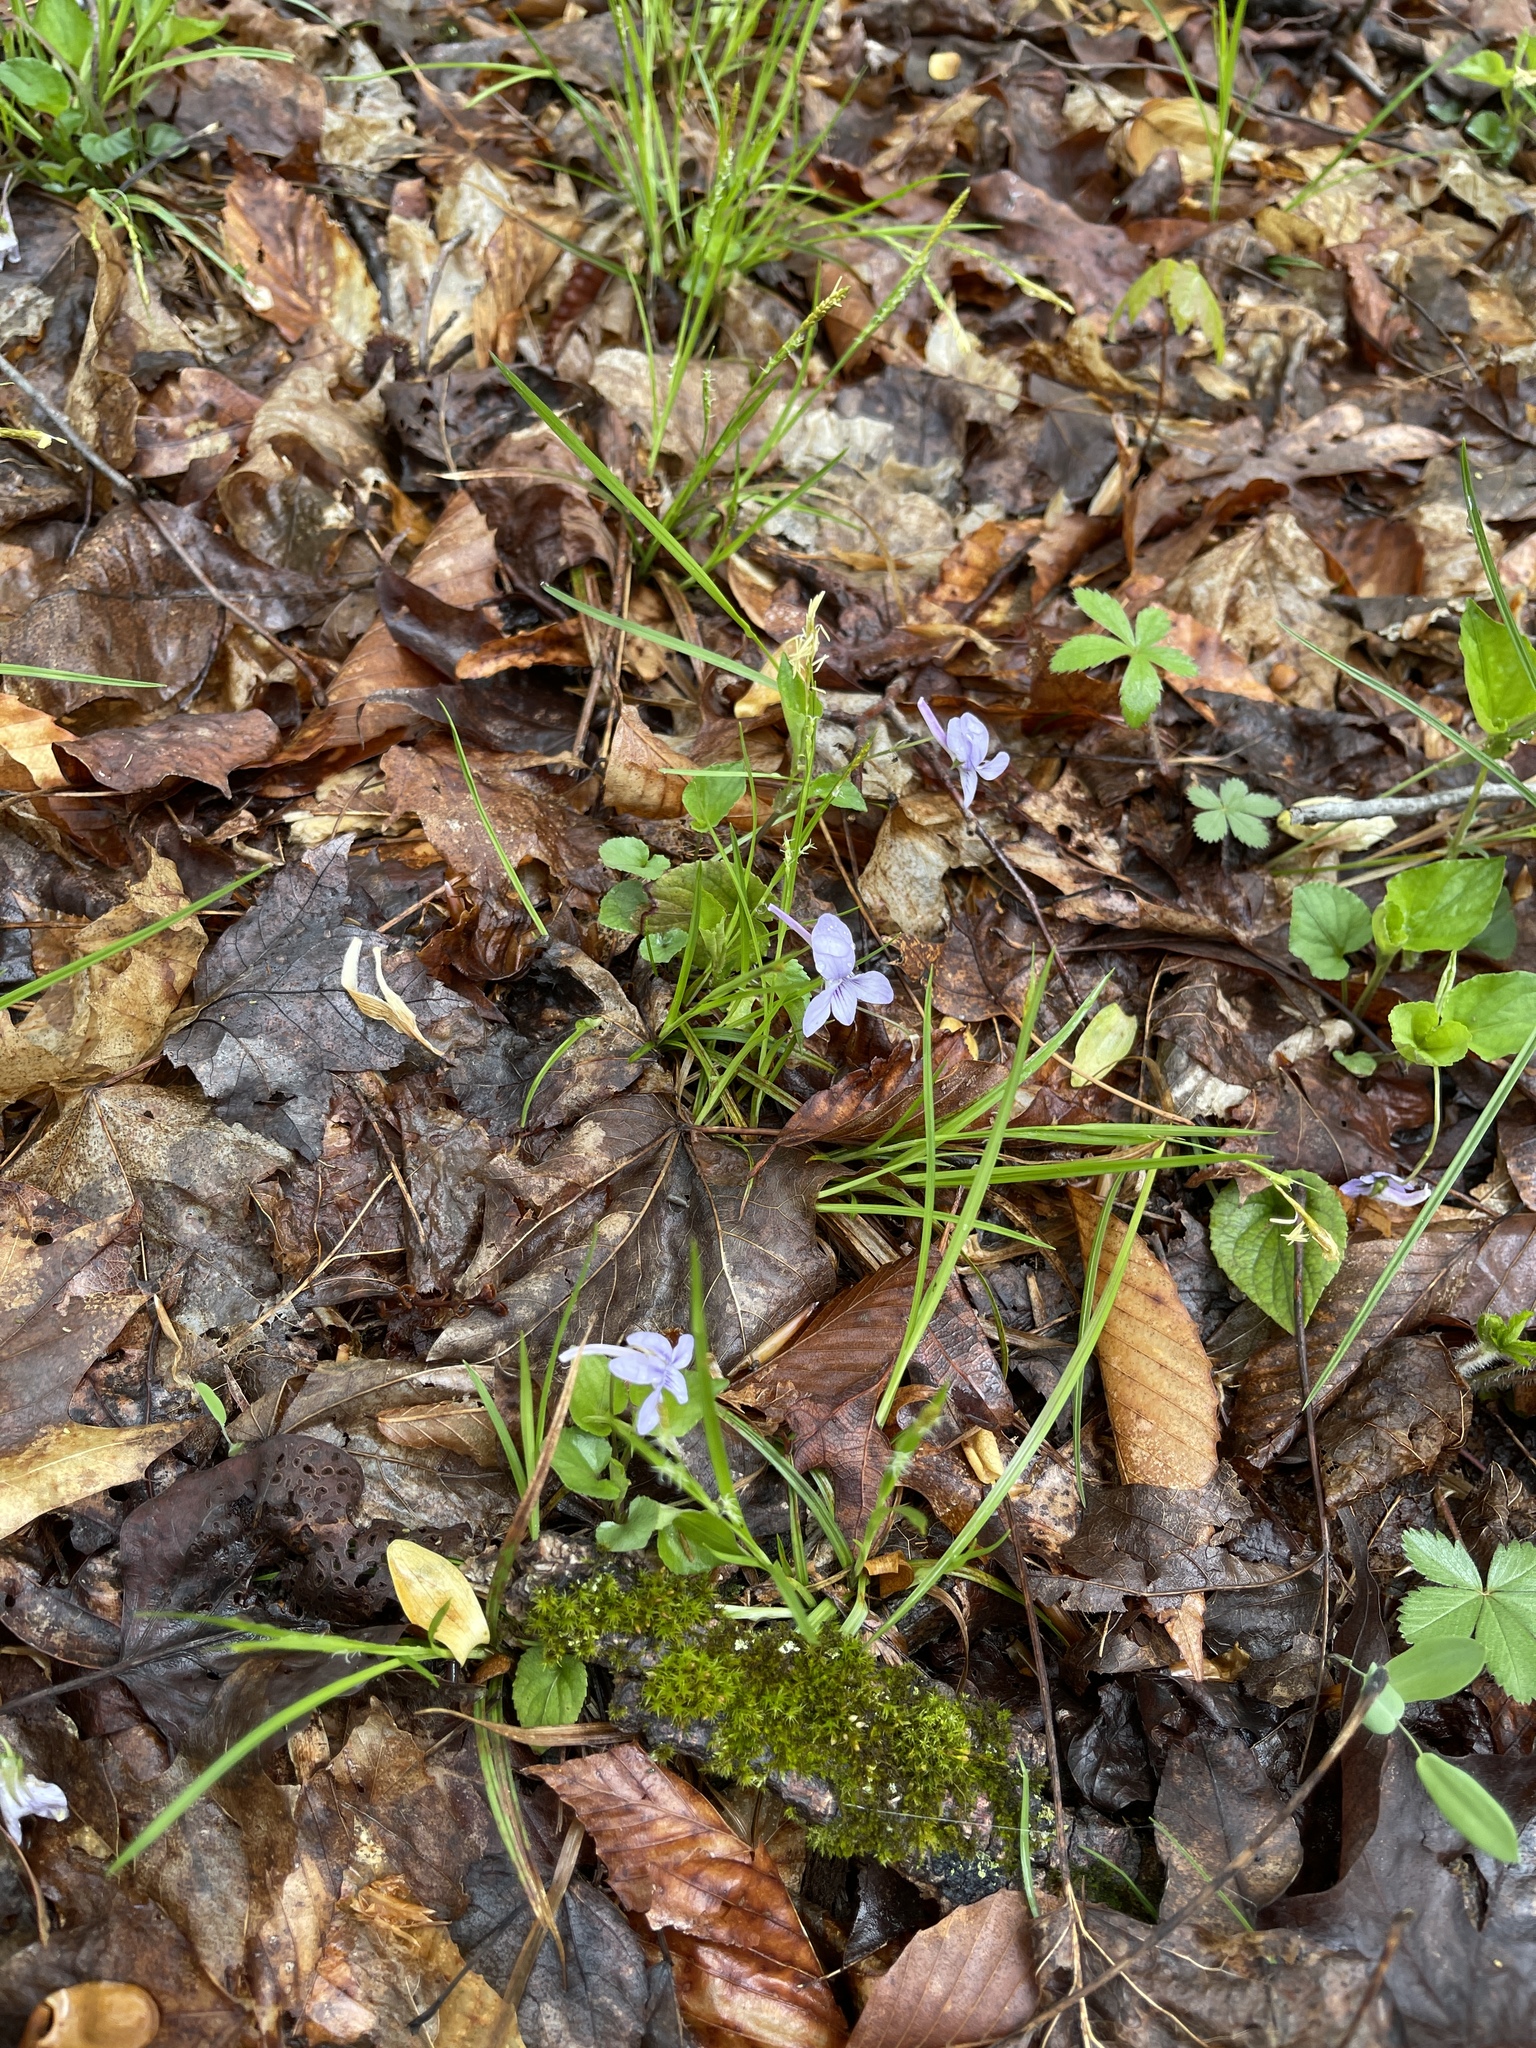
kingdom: Plantae
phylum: Tracheophyta
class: Magnoliopsida
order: Malpighiales
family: Violaceae
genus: Viola
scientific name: Viola rostrata
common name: Long-spur violet
